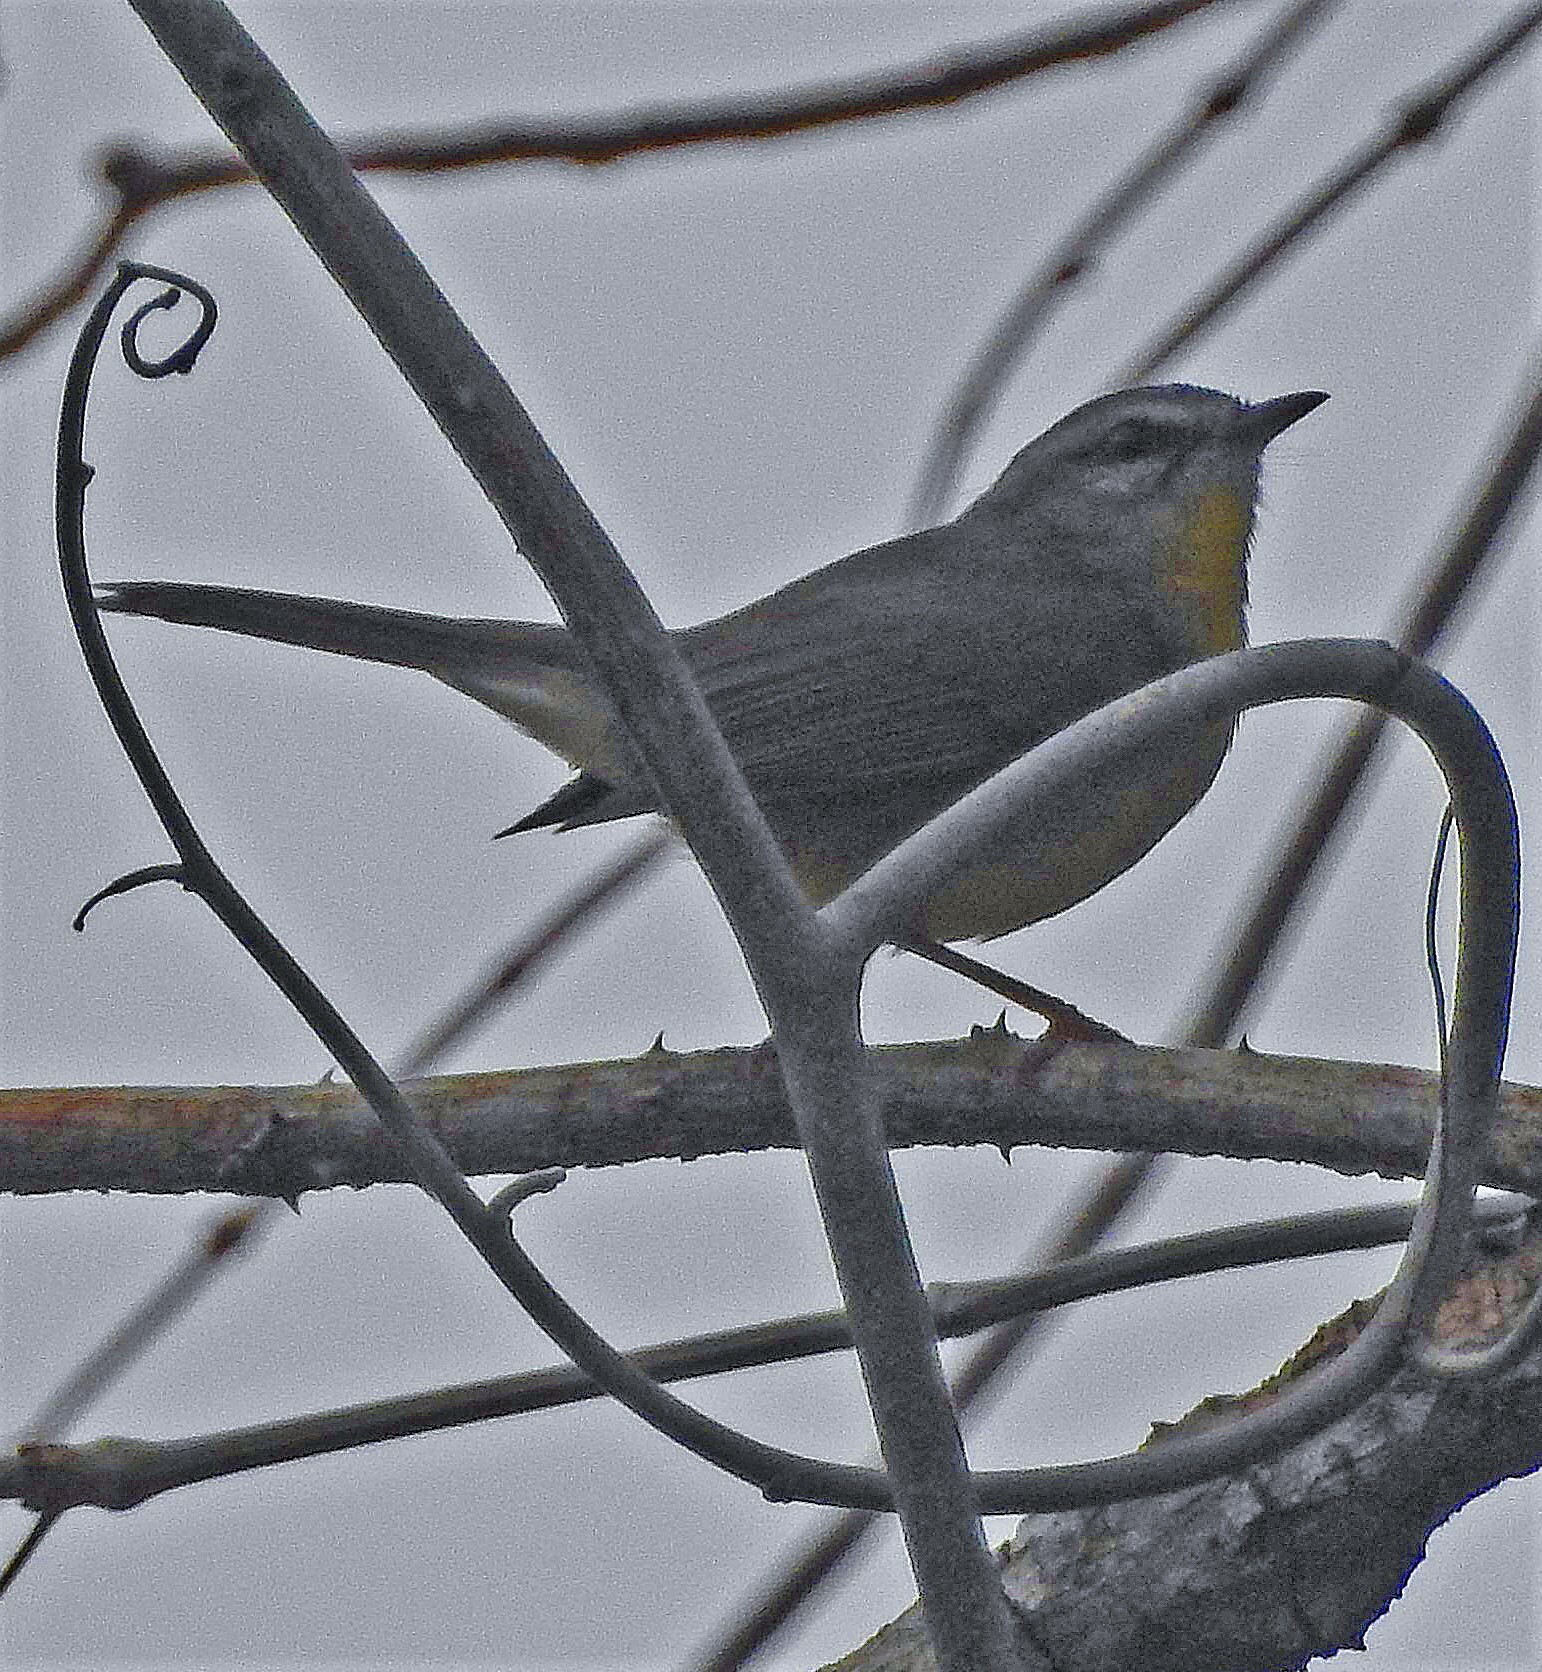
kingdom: Animalia
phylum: Chordata
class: Aves
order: Passeriformes
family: Parulidae
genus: Basileuterus
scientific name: Basileuterus culicivorus
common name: Golden-crowned warbler
